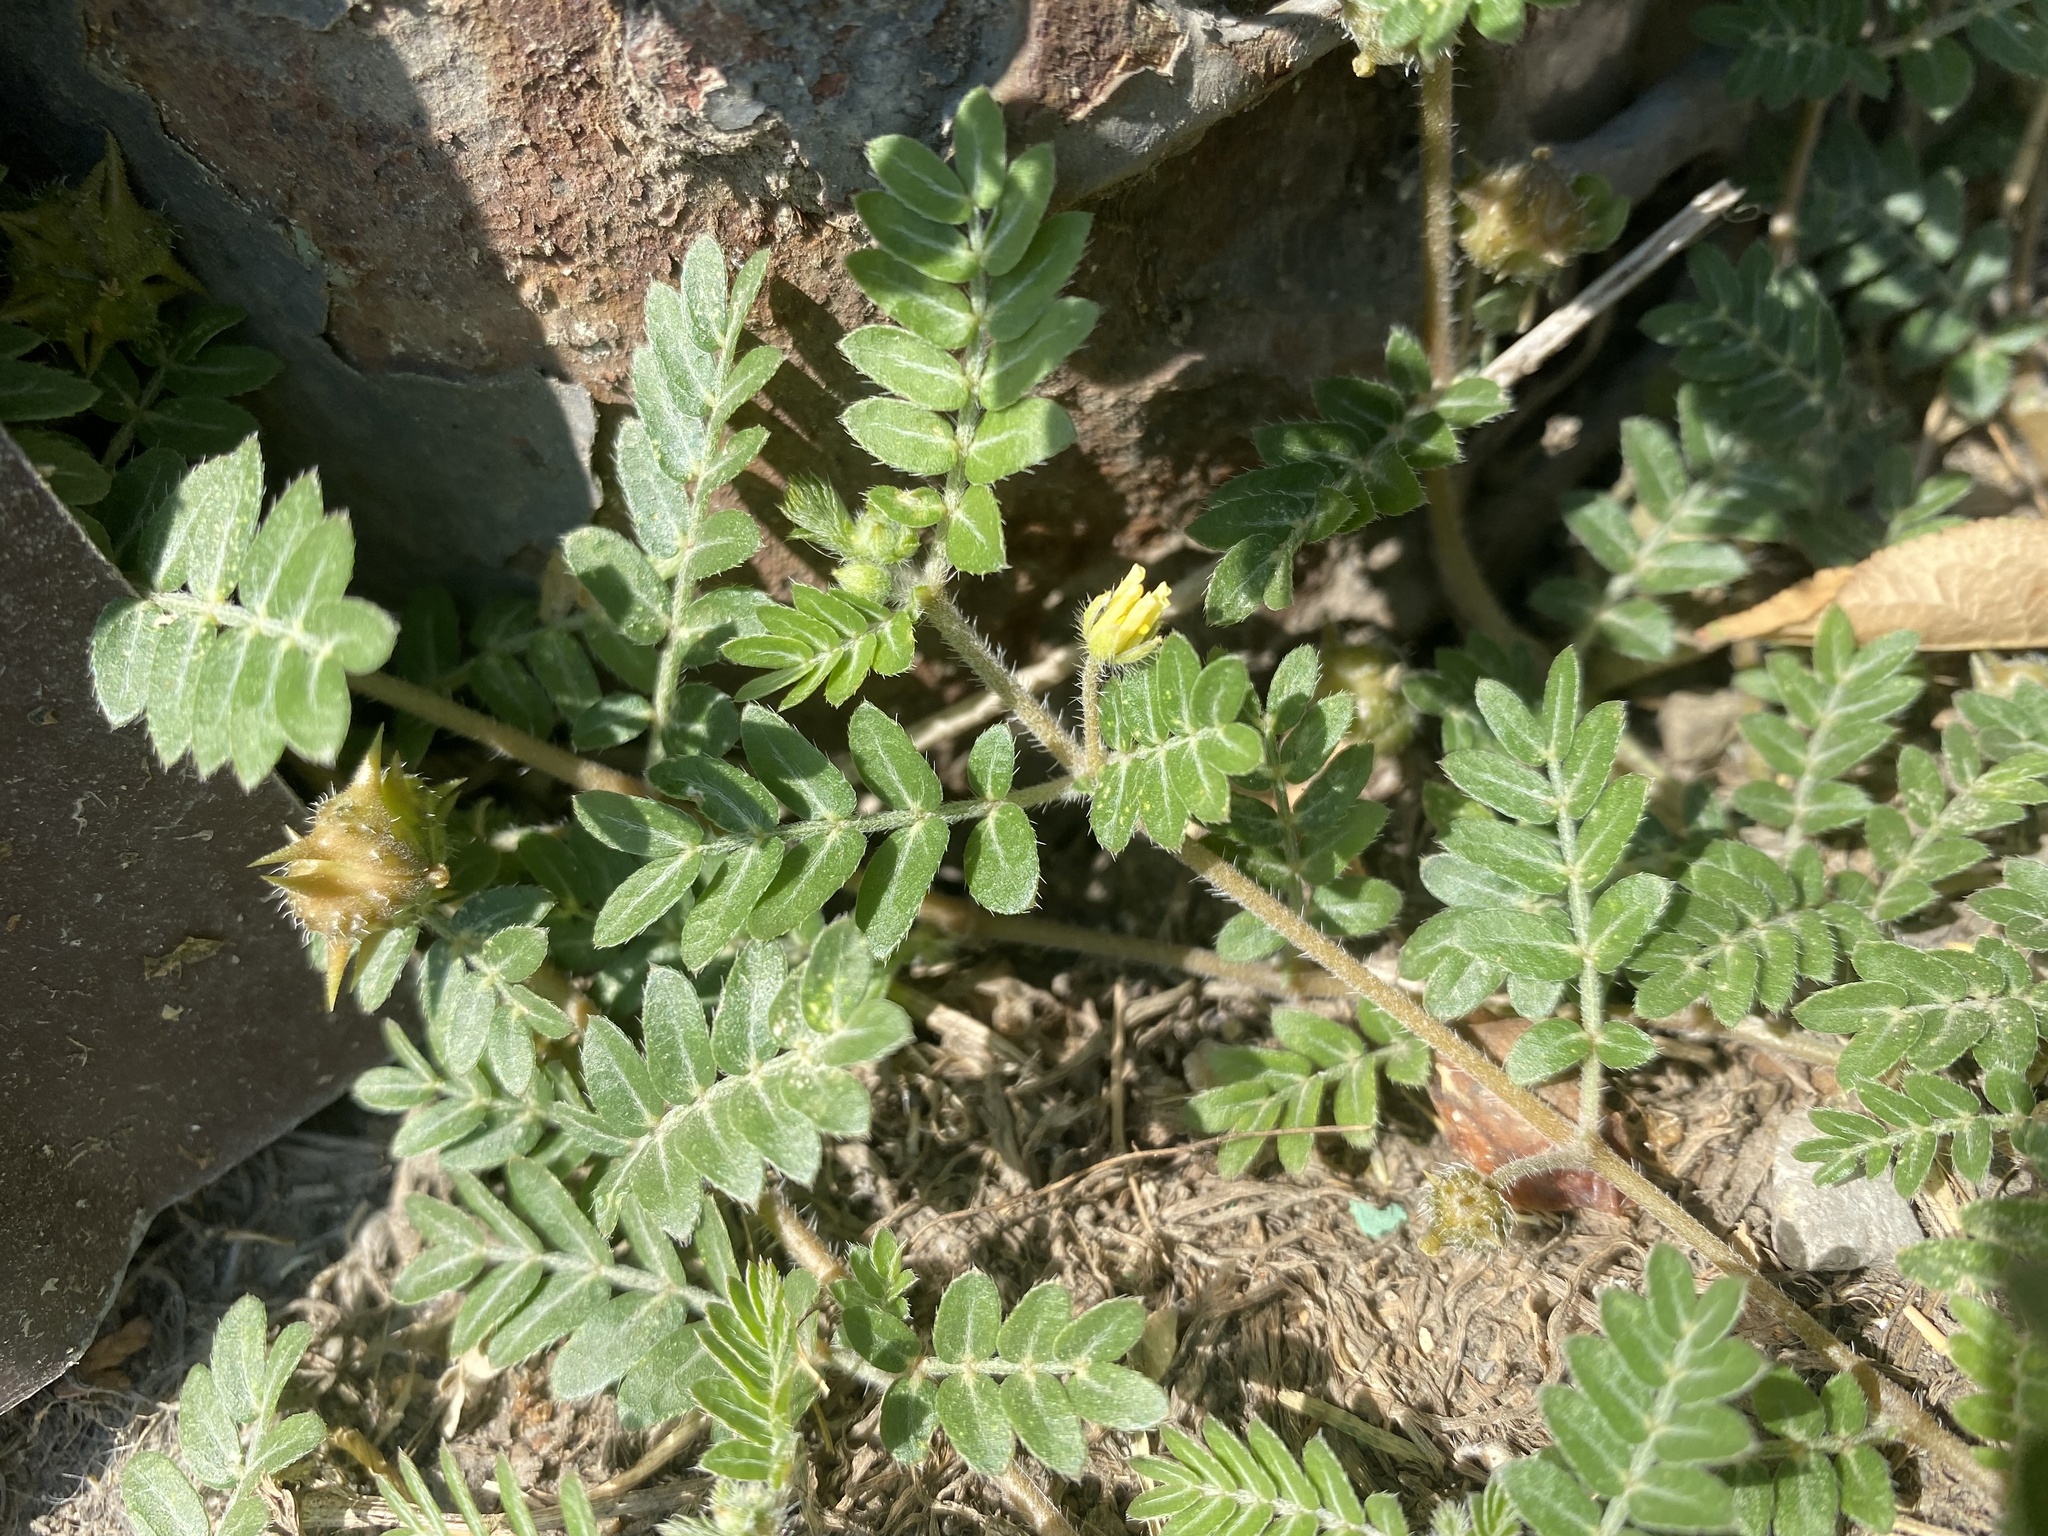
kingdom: Plantae
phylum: Tracheophyta
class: Magnoliopsida
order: Zygophyllales
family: Zygophyllaceae
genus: Tribulus
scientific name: Tribulus terrestris
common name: Puncturevine
